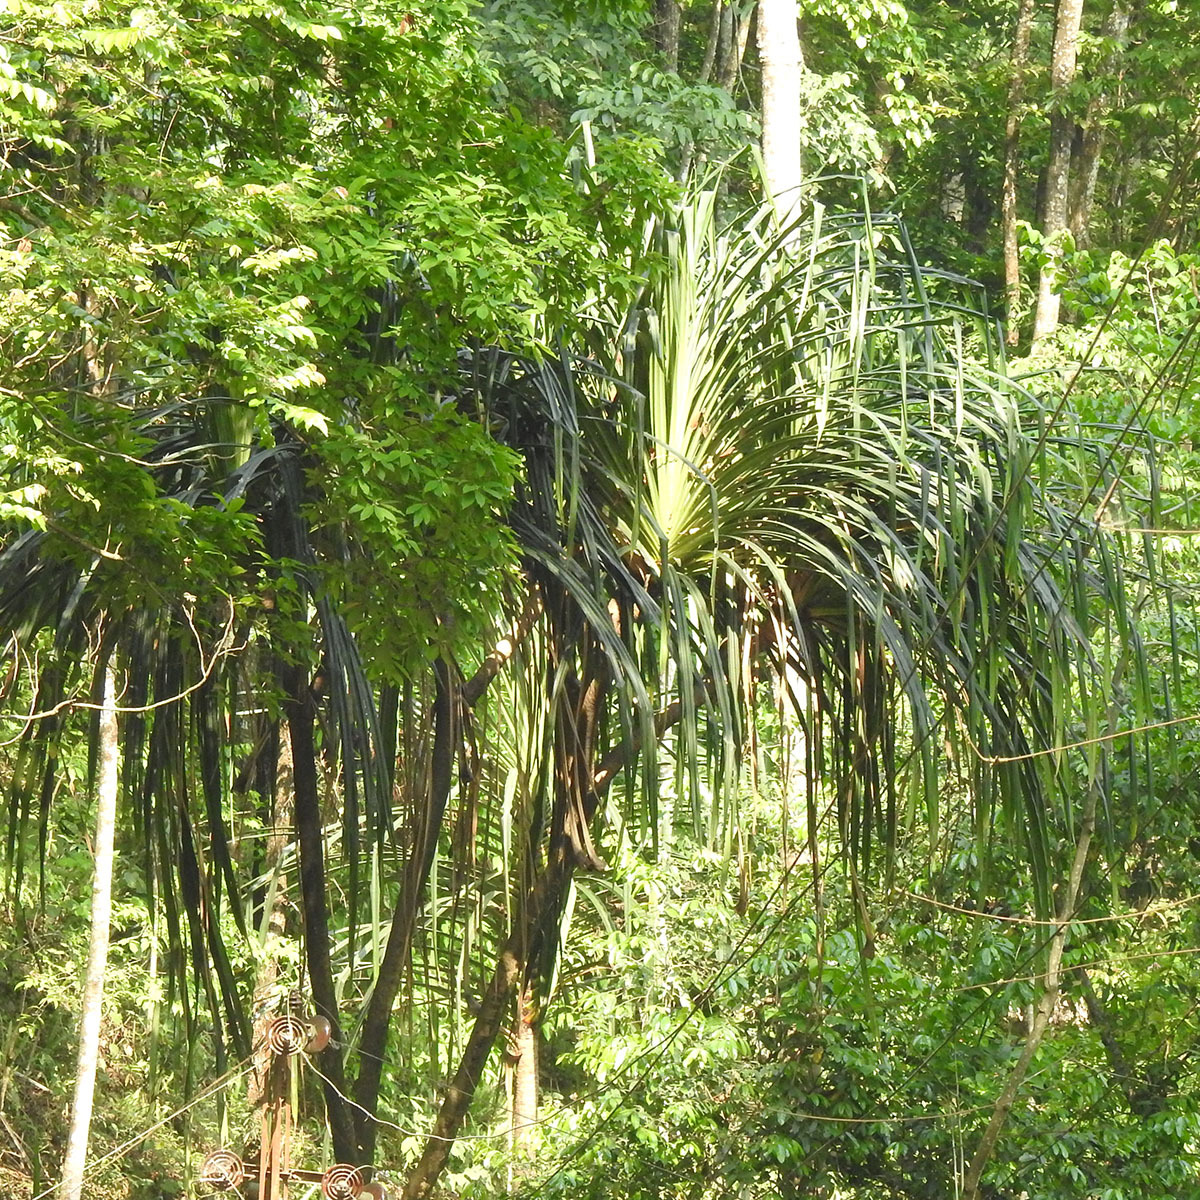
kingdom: Plantae
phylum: Tracheophyta
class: Liliopsida
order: Pandanales
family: Pandanaceae
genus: Pandanus
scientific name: Pandanus furcatus
